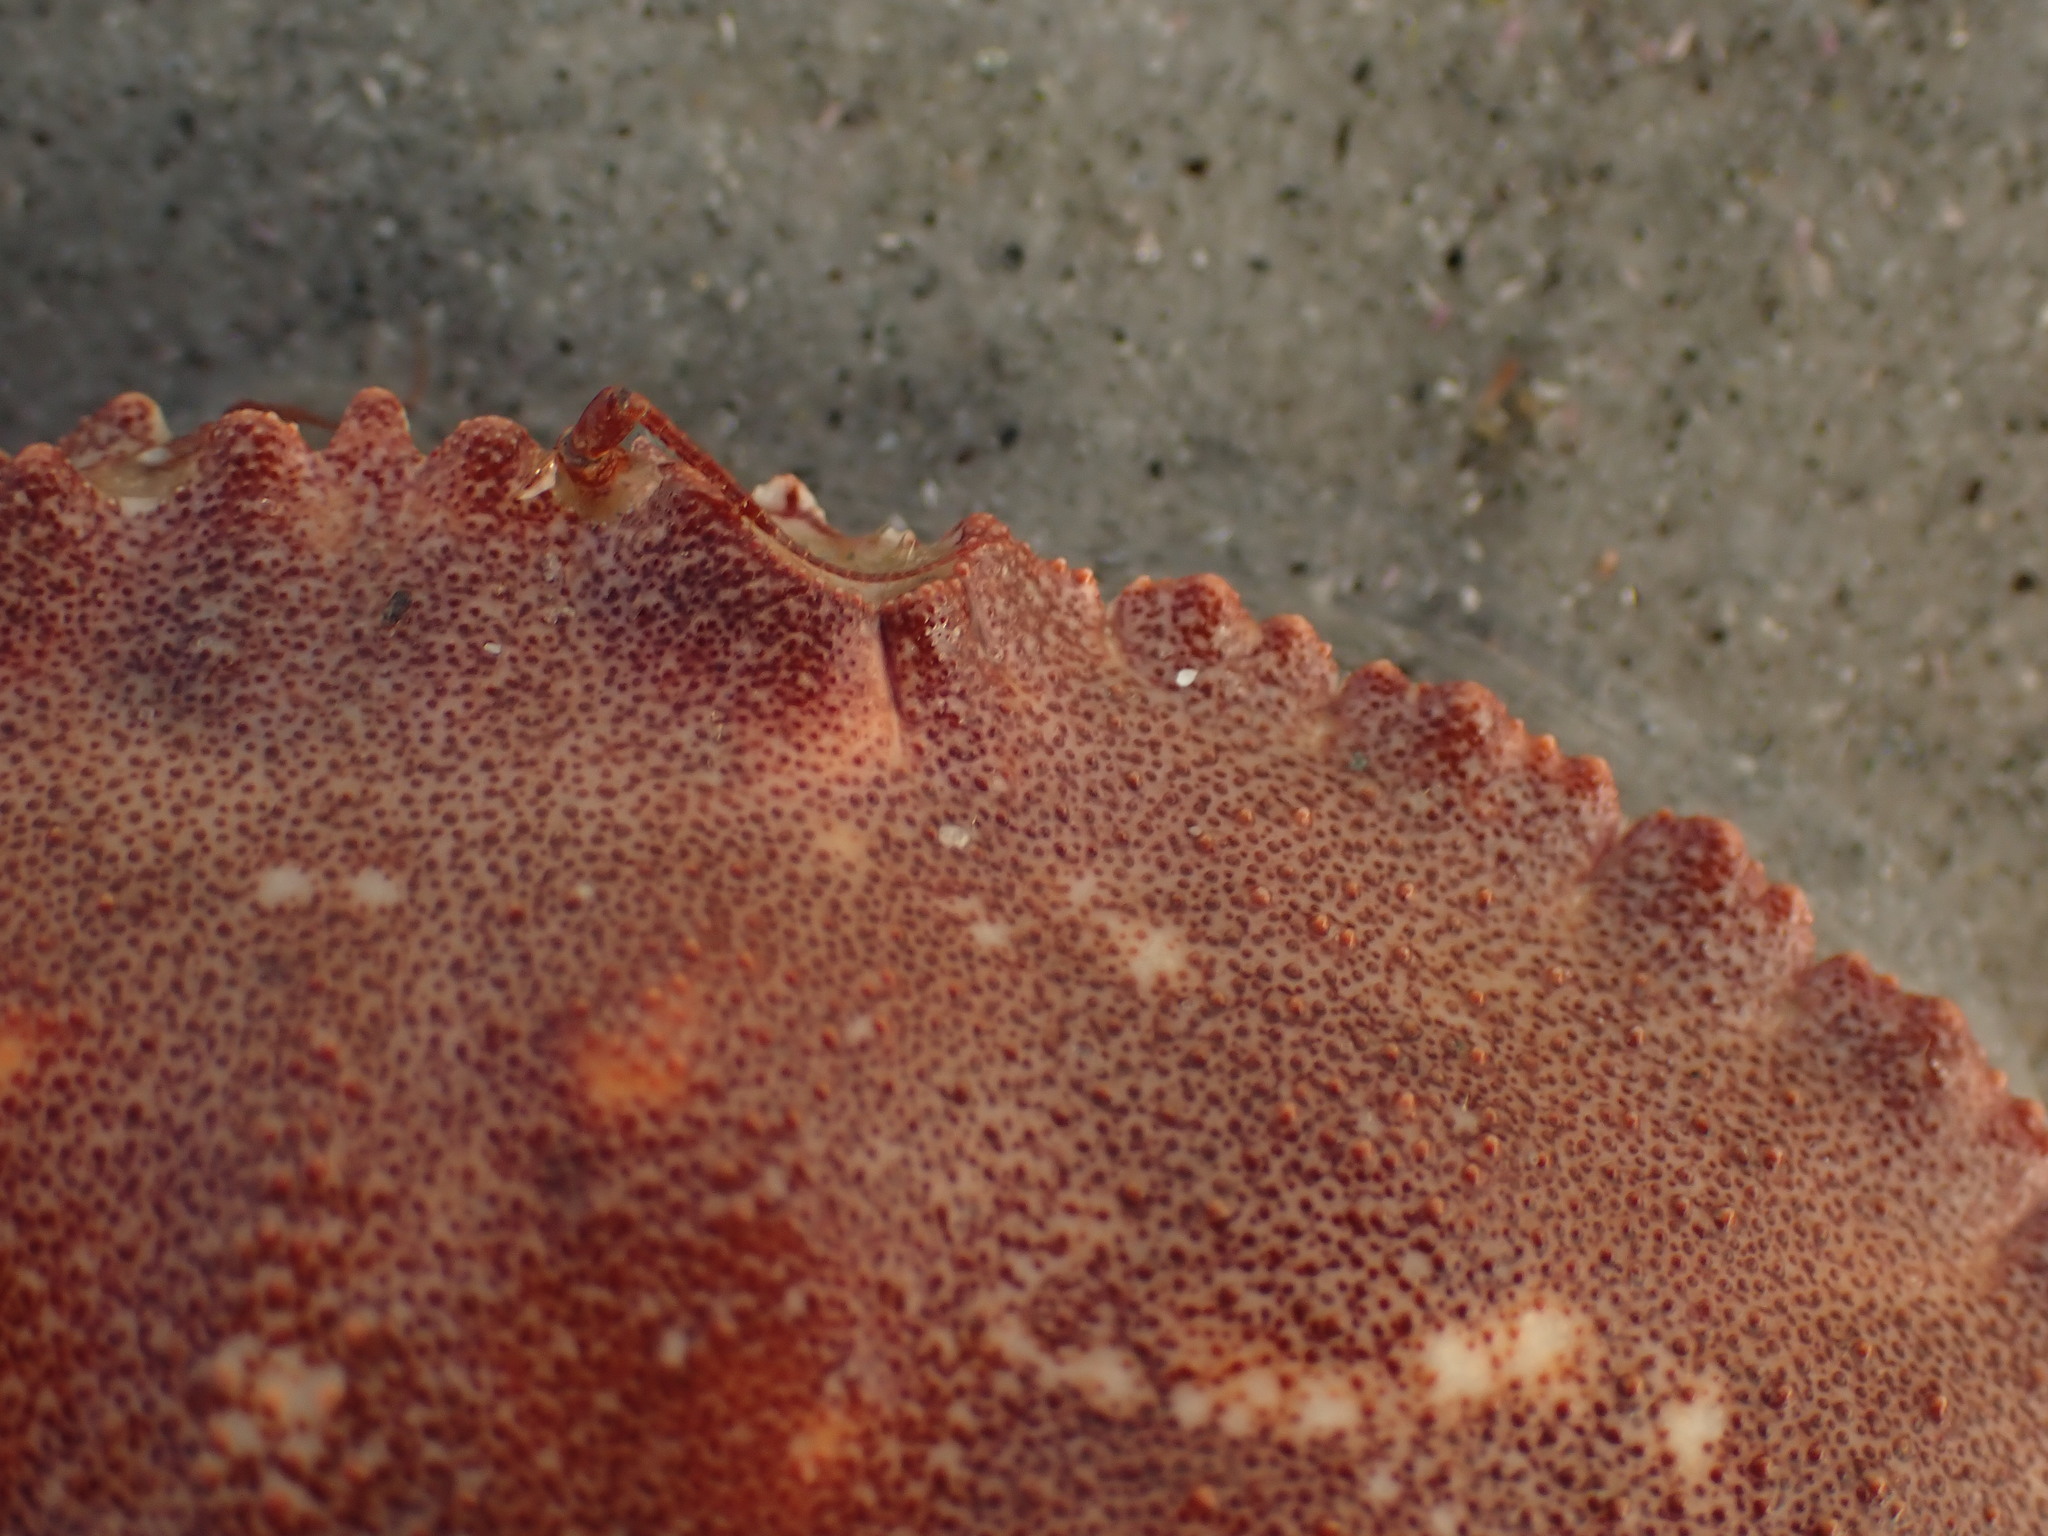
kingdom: Animalia
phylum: Arthropoda
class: Malacostraca
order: Decapoda
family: Cancridae
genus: Cancer
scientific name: Cancer borealis
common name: Jonah crab
